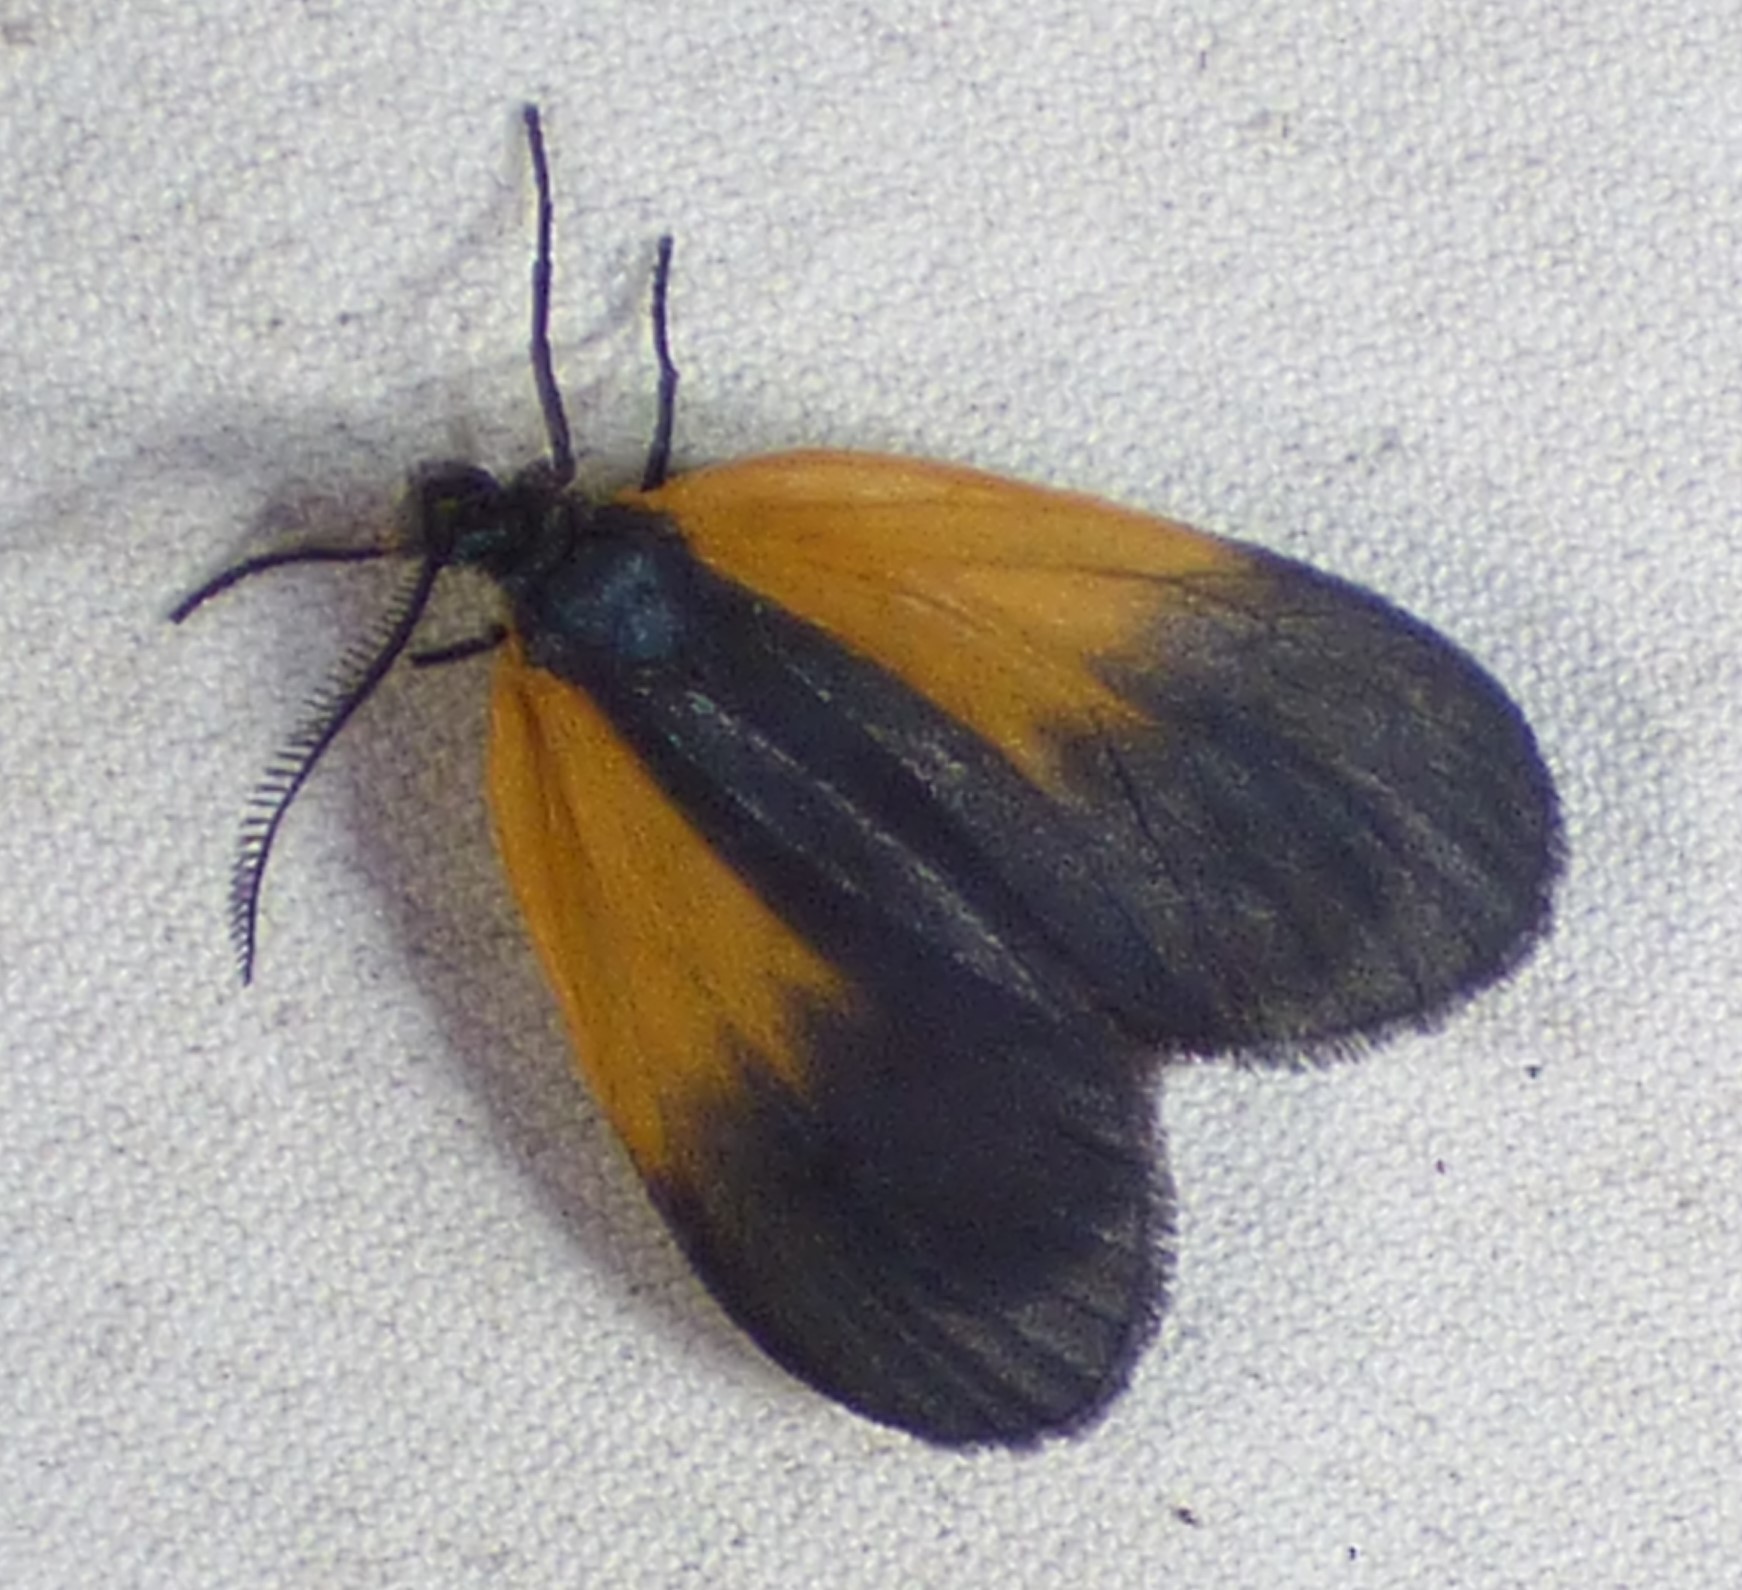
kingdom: Animalia
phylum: Arthropoda
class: Insecta
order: Lepidoptera
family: Zygaenidae
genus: Malthaca
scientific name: Malthaca dimidiata
